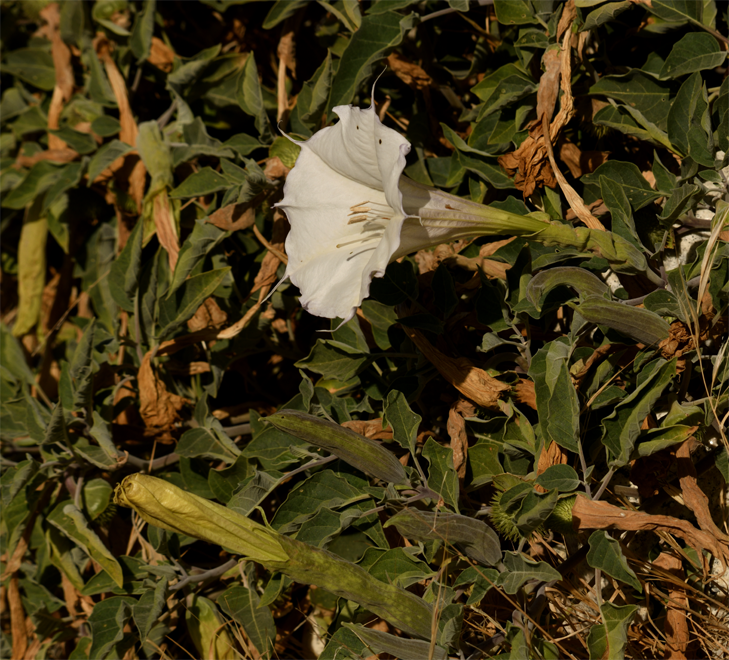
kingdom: Plantae
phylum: Tracheophyta
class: Magnoliopsida
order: Solanales
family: Solanaceae
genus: Datura
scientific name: Datura wrightii
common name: Sacred thorn-apple
